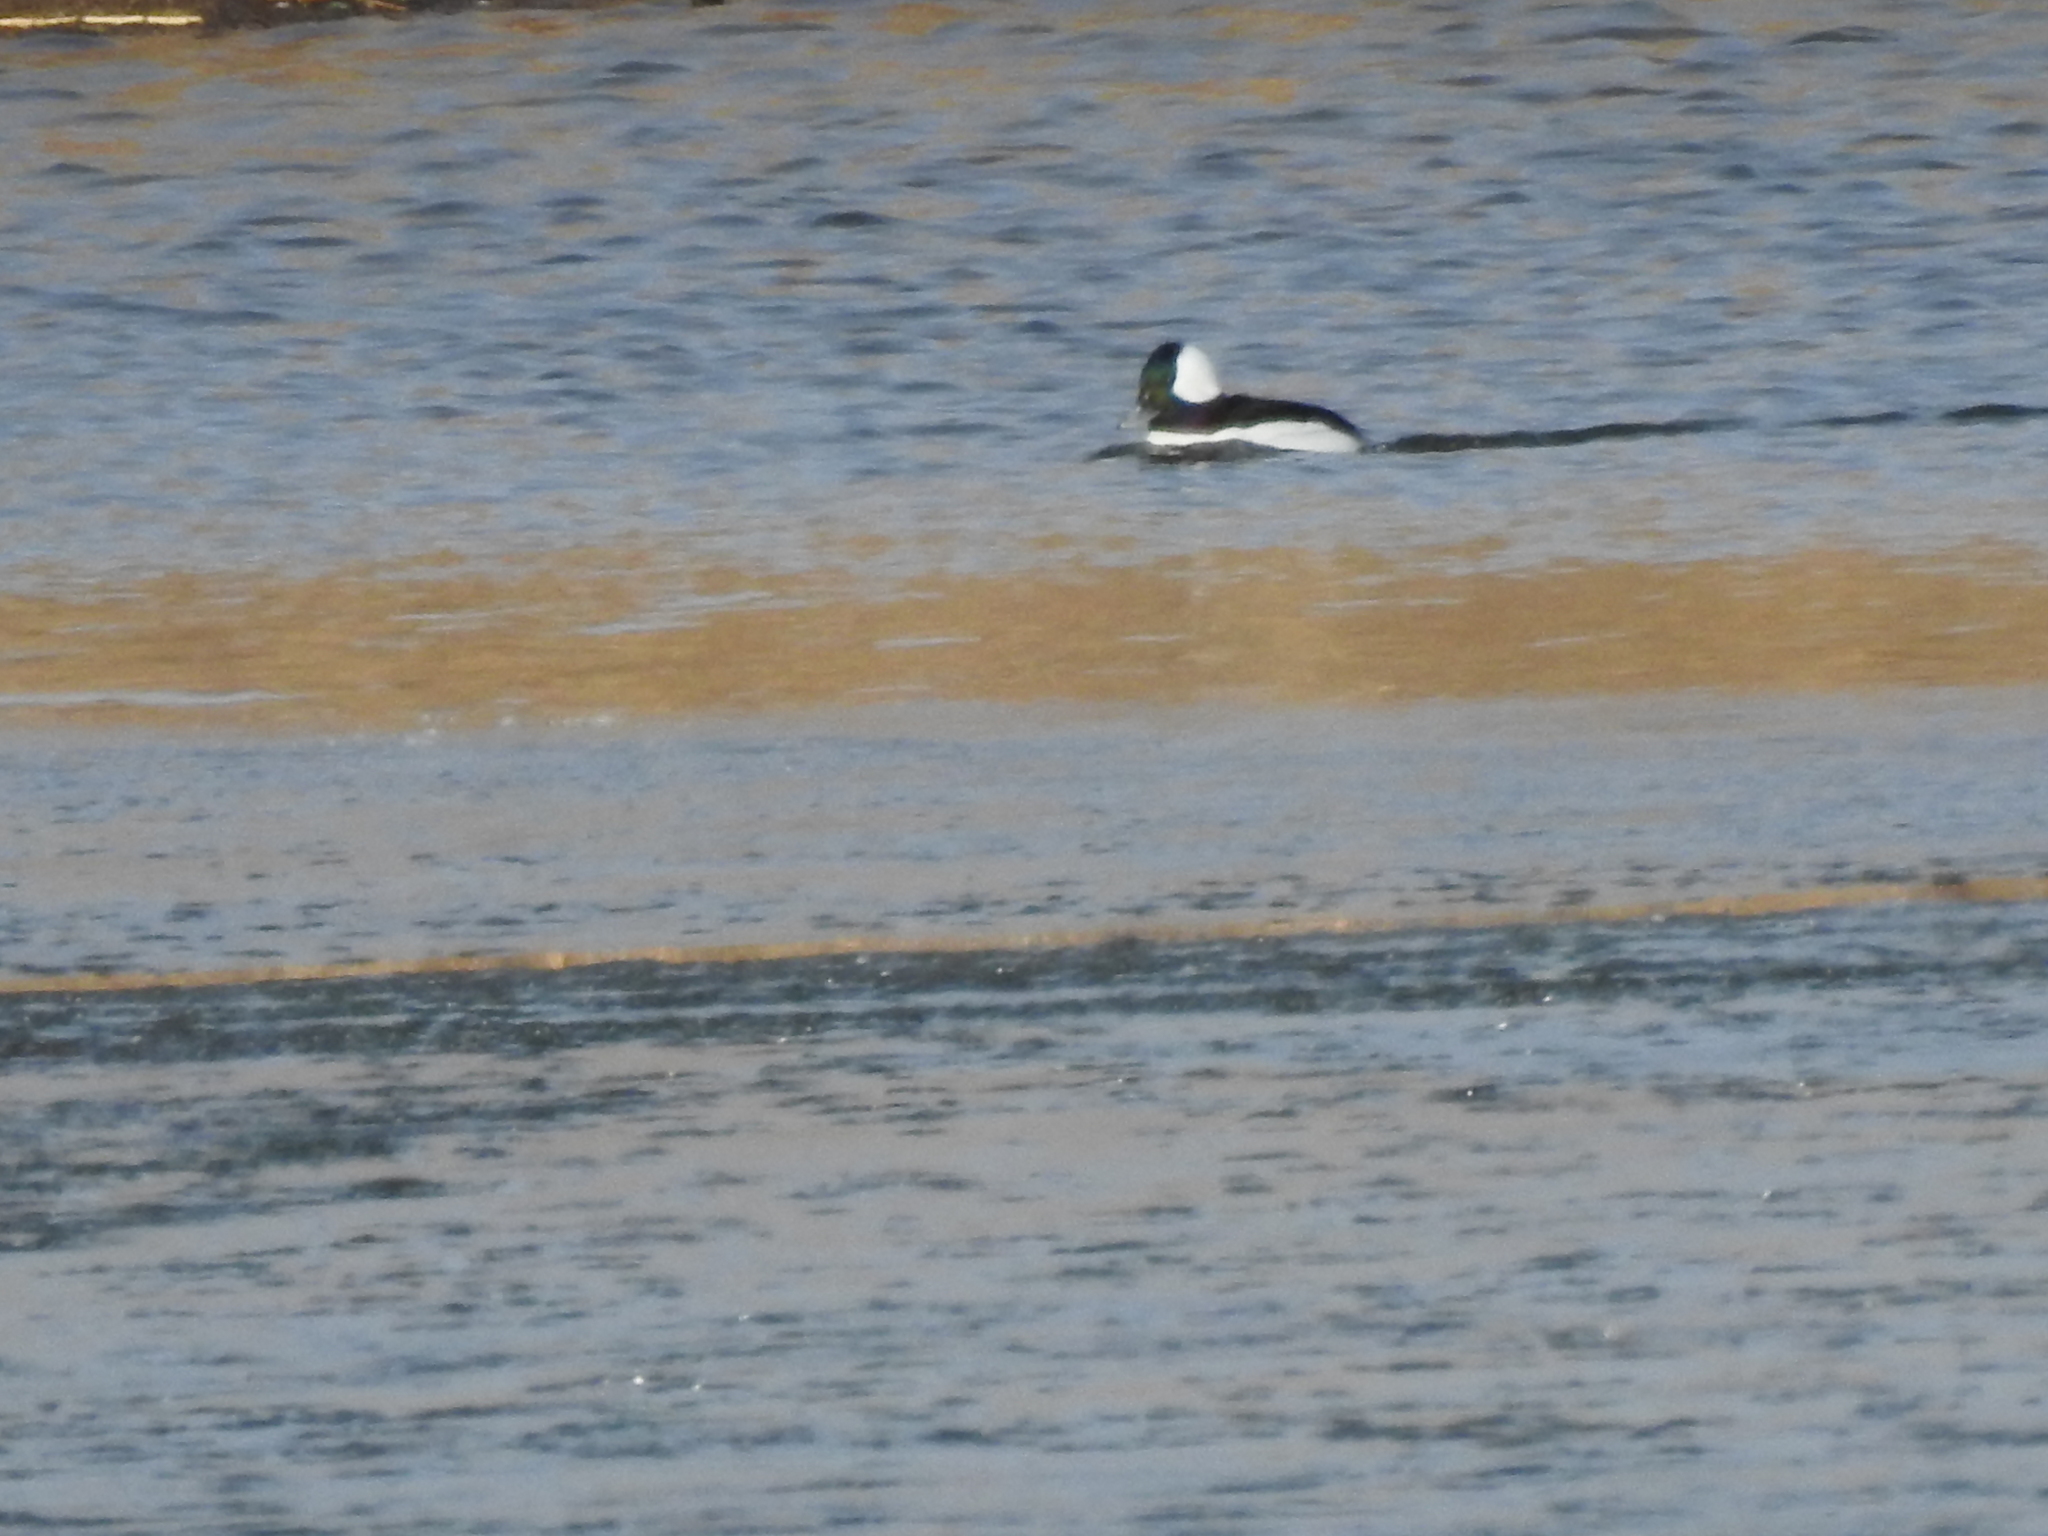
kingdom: Animalia
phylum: Chordata
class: Aves
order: Anseriformes
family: Anatidae
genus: Bucephala
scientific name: Bucephala albeola
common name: Bufflehead
